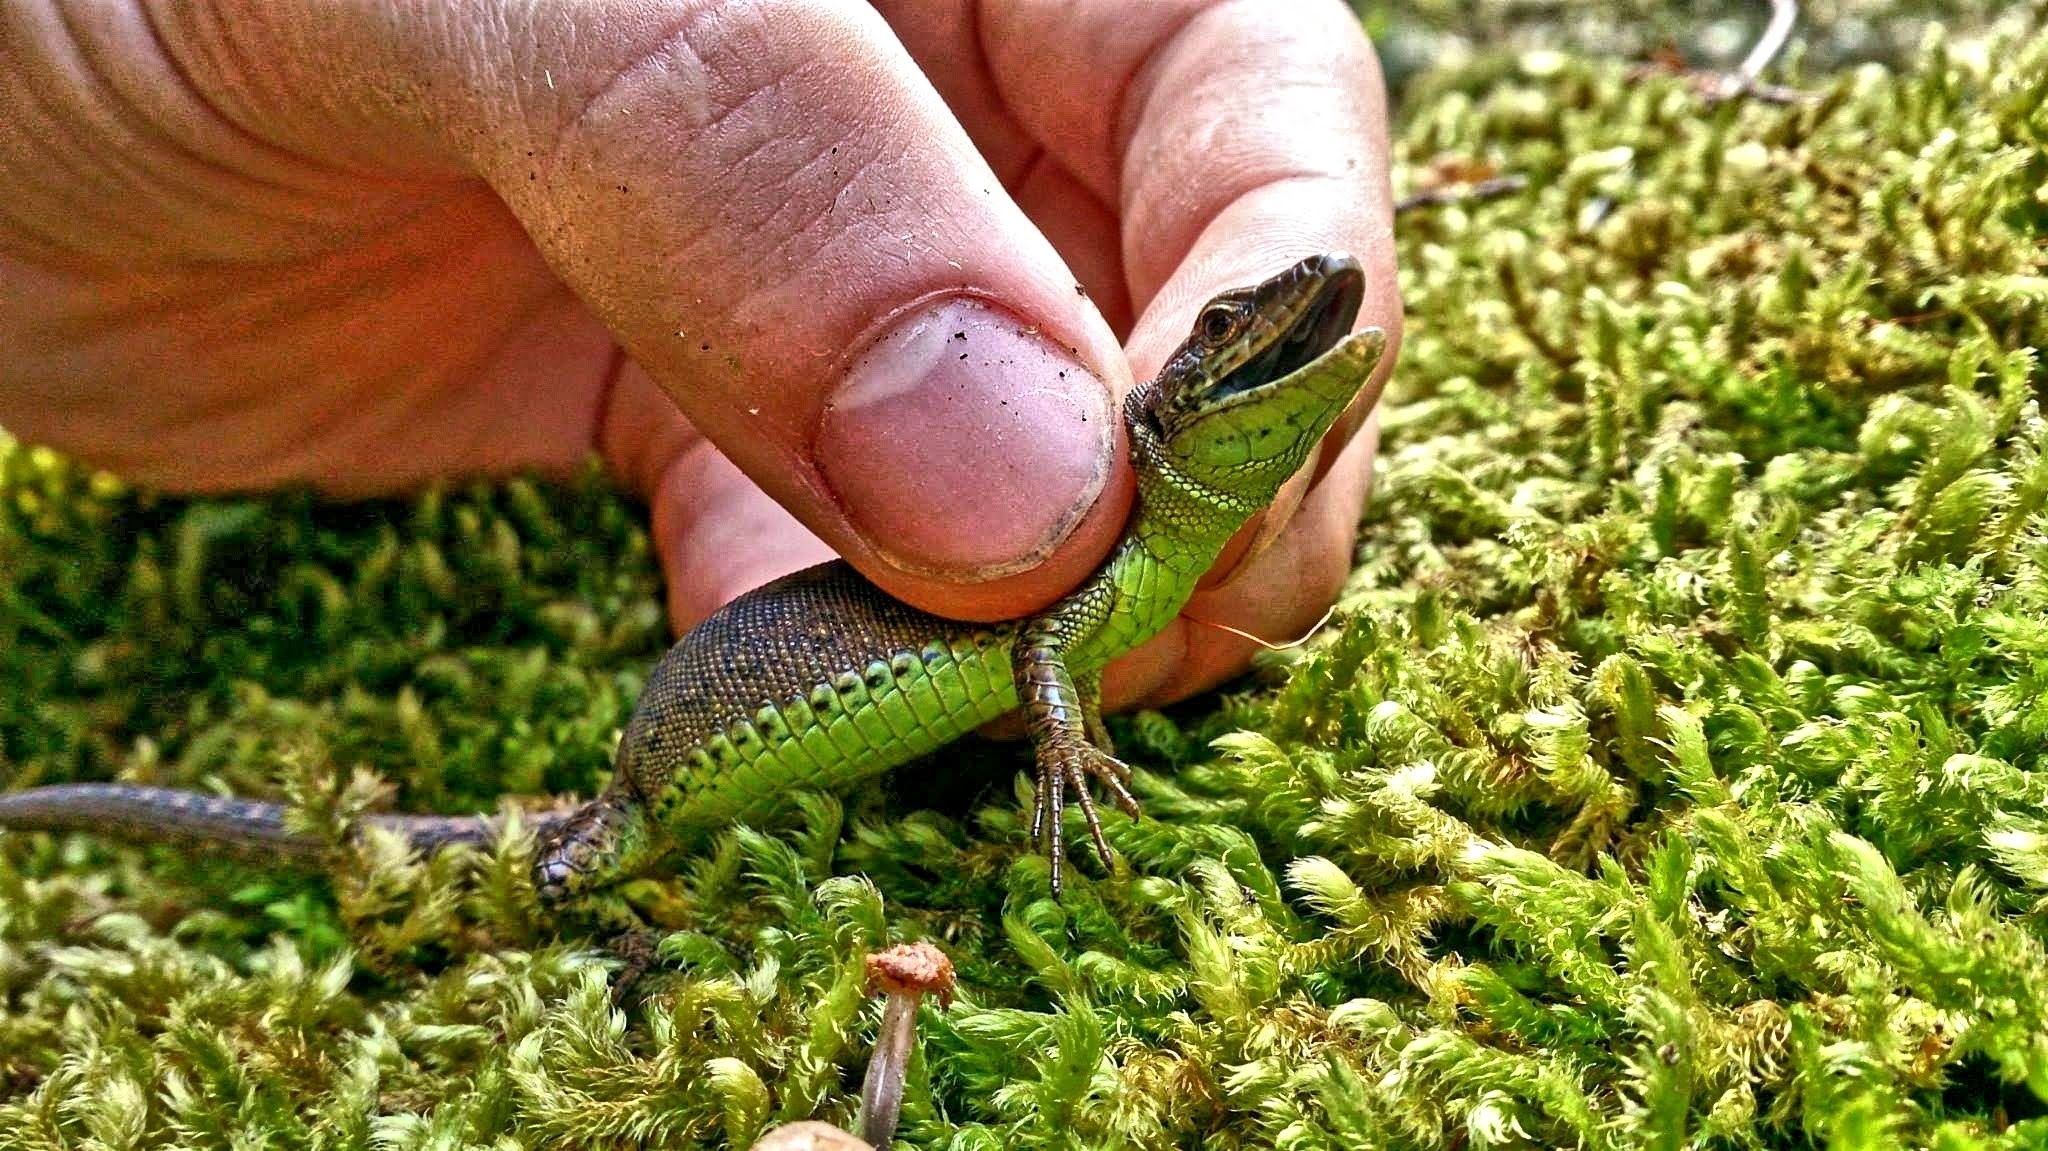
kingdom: Animalia
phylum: Chordata
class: Squamata
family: Lacertidae
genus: Darevskia
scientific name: Darevskia chlorogaster
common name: Green-bellied lizard
